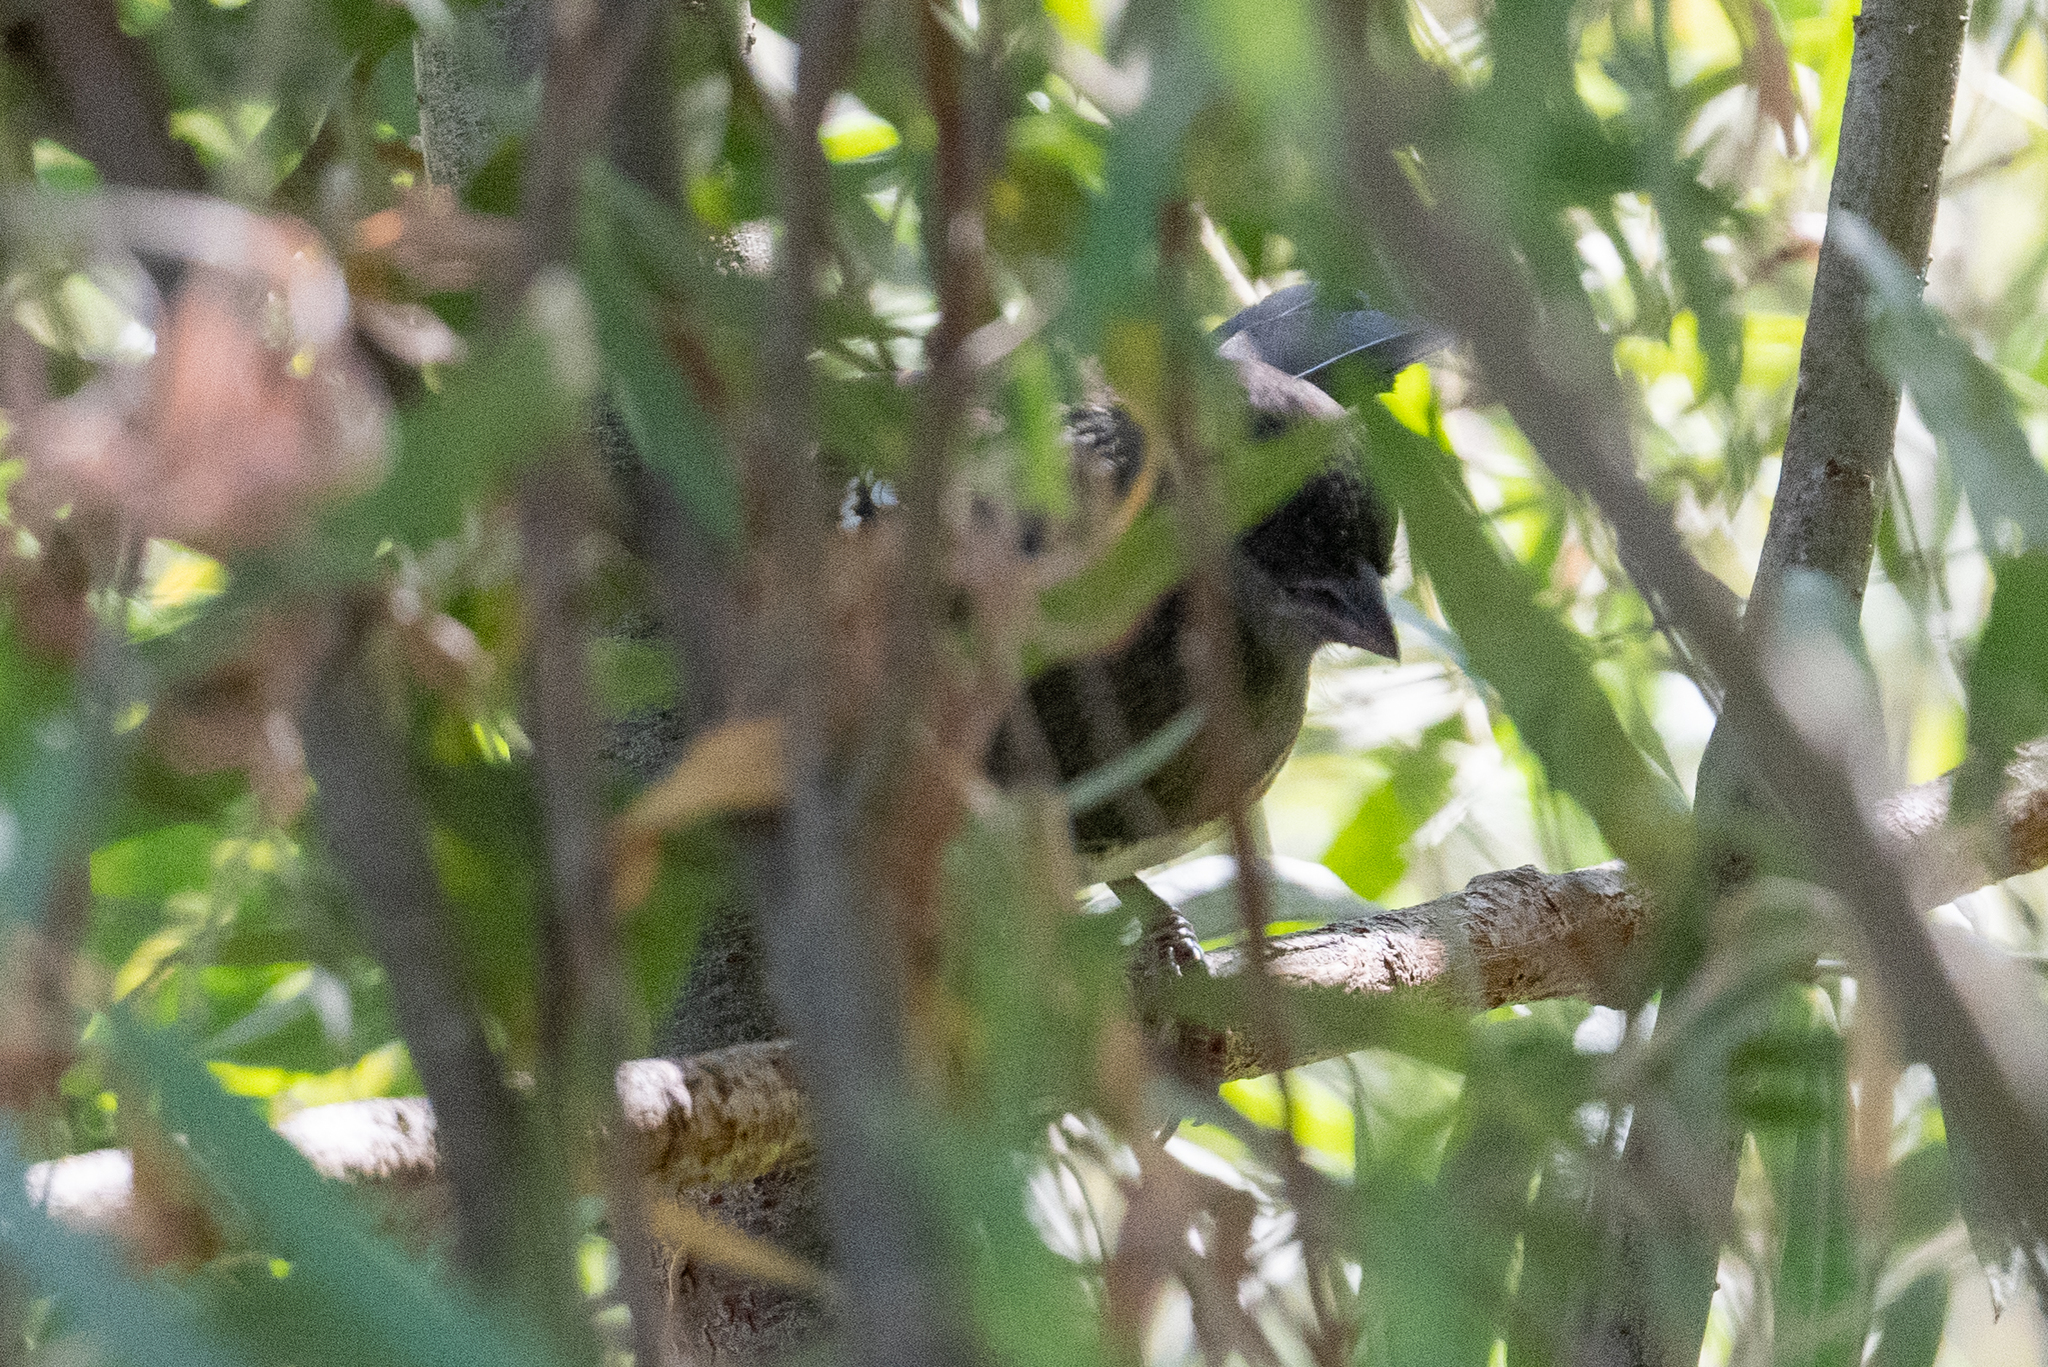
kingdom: Animalia
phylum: Chordata
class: Aves
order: Passeriformes
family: Passerellidae
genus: Pipilo
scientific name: Pipilo maculatus
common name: Spotted towhee
